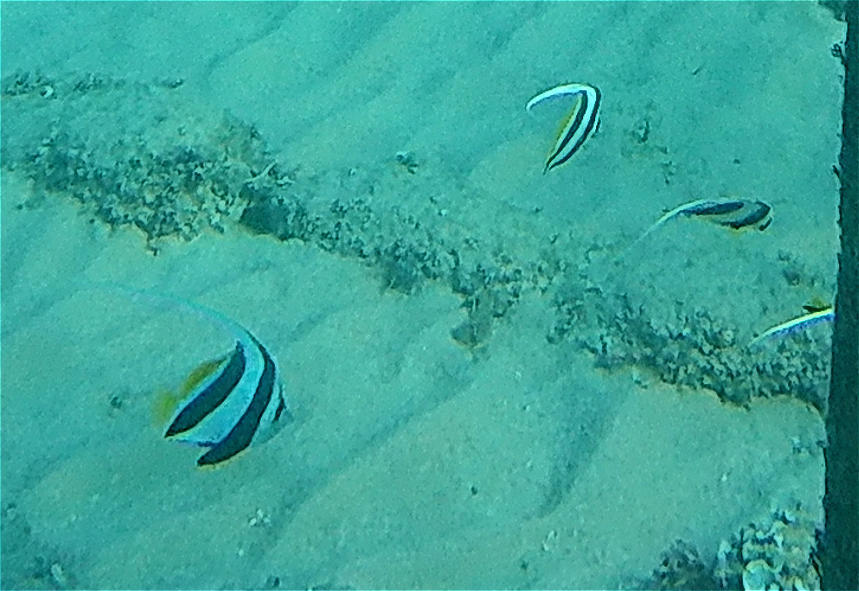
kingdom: Animalia
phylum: Chordata
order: Perciformes
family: Chaetodontidae
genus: Heniochus
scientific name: Heniochus diphreutes
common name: Pennantfish
